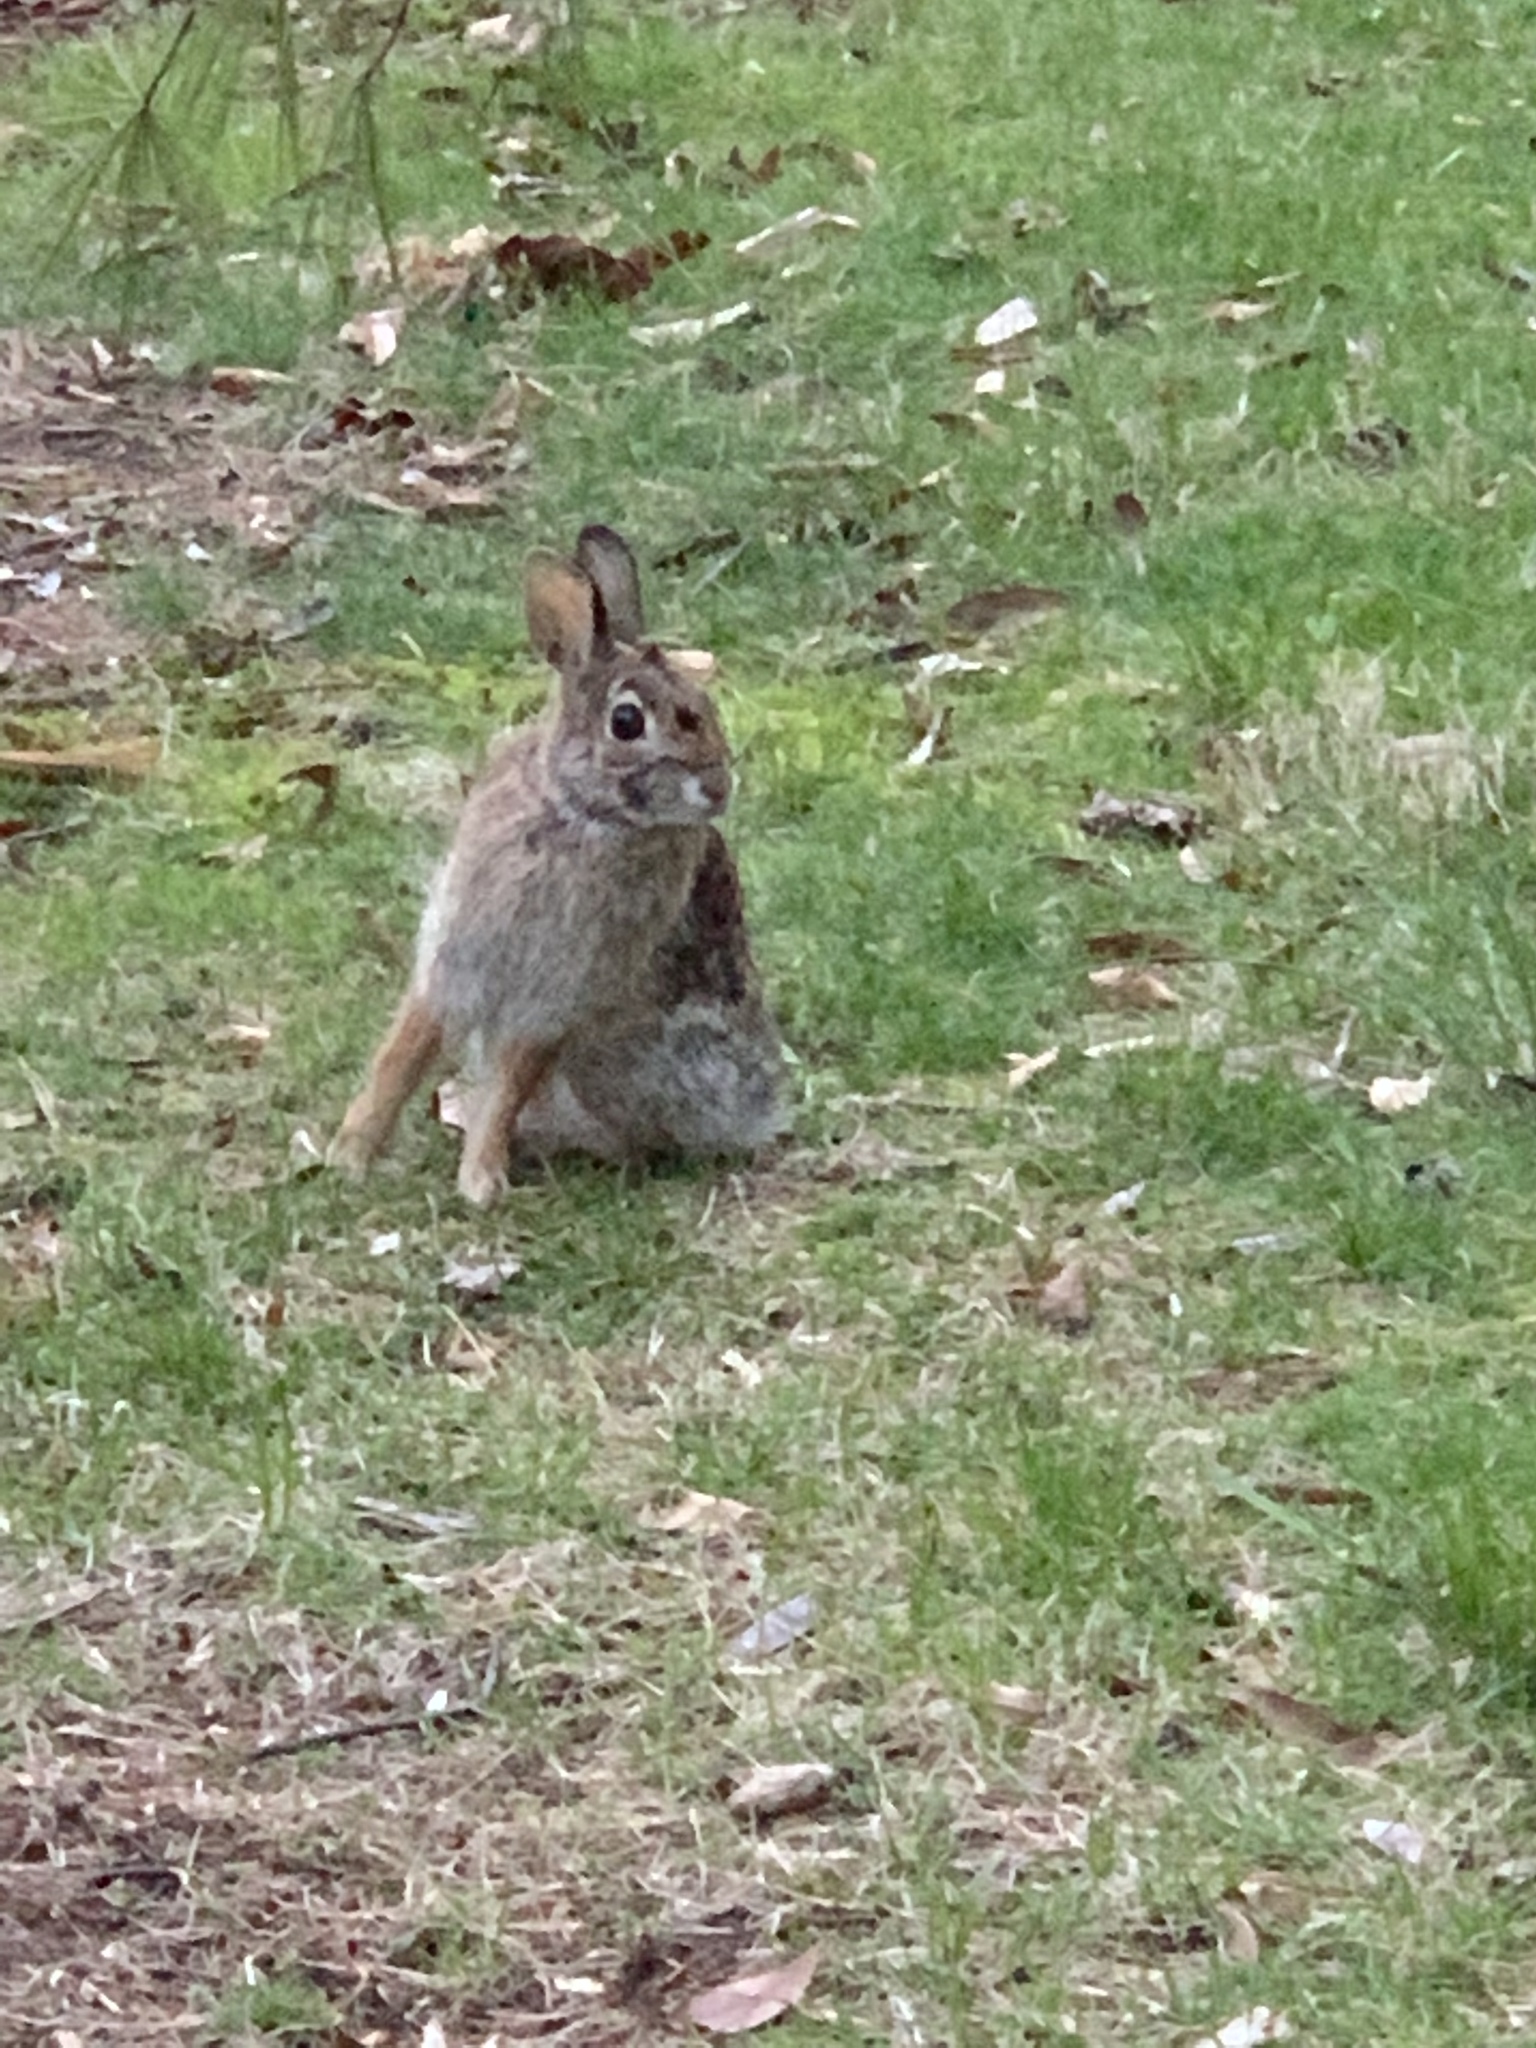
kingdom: Animalia
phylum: Chordata
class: Mammalia
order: Lagomorpha
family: Leporidae
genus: Sylvilagus
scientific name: Sylvilagus floridanus
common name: Eastern cottontail
